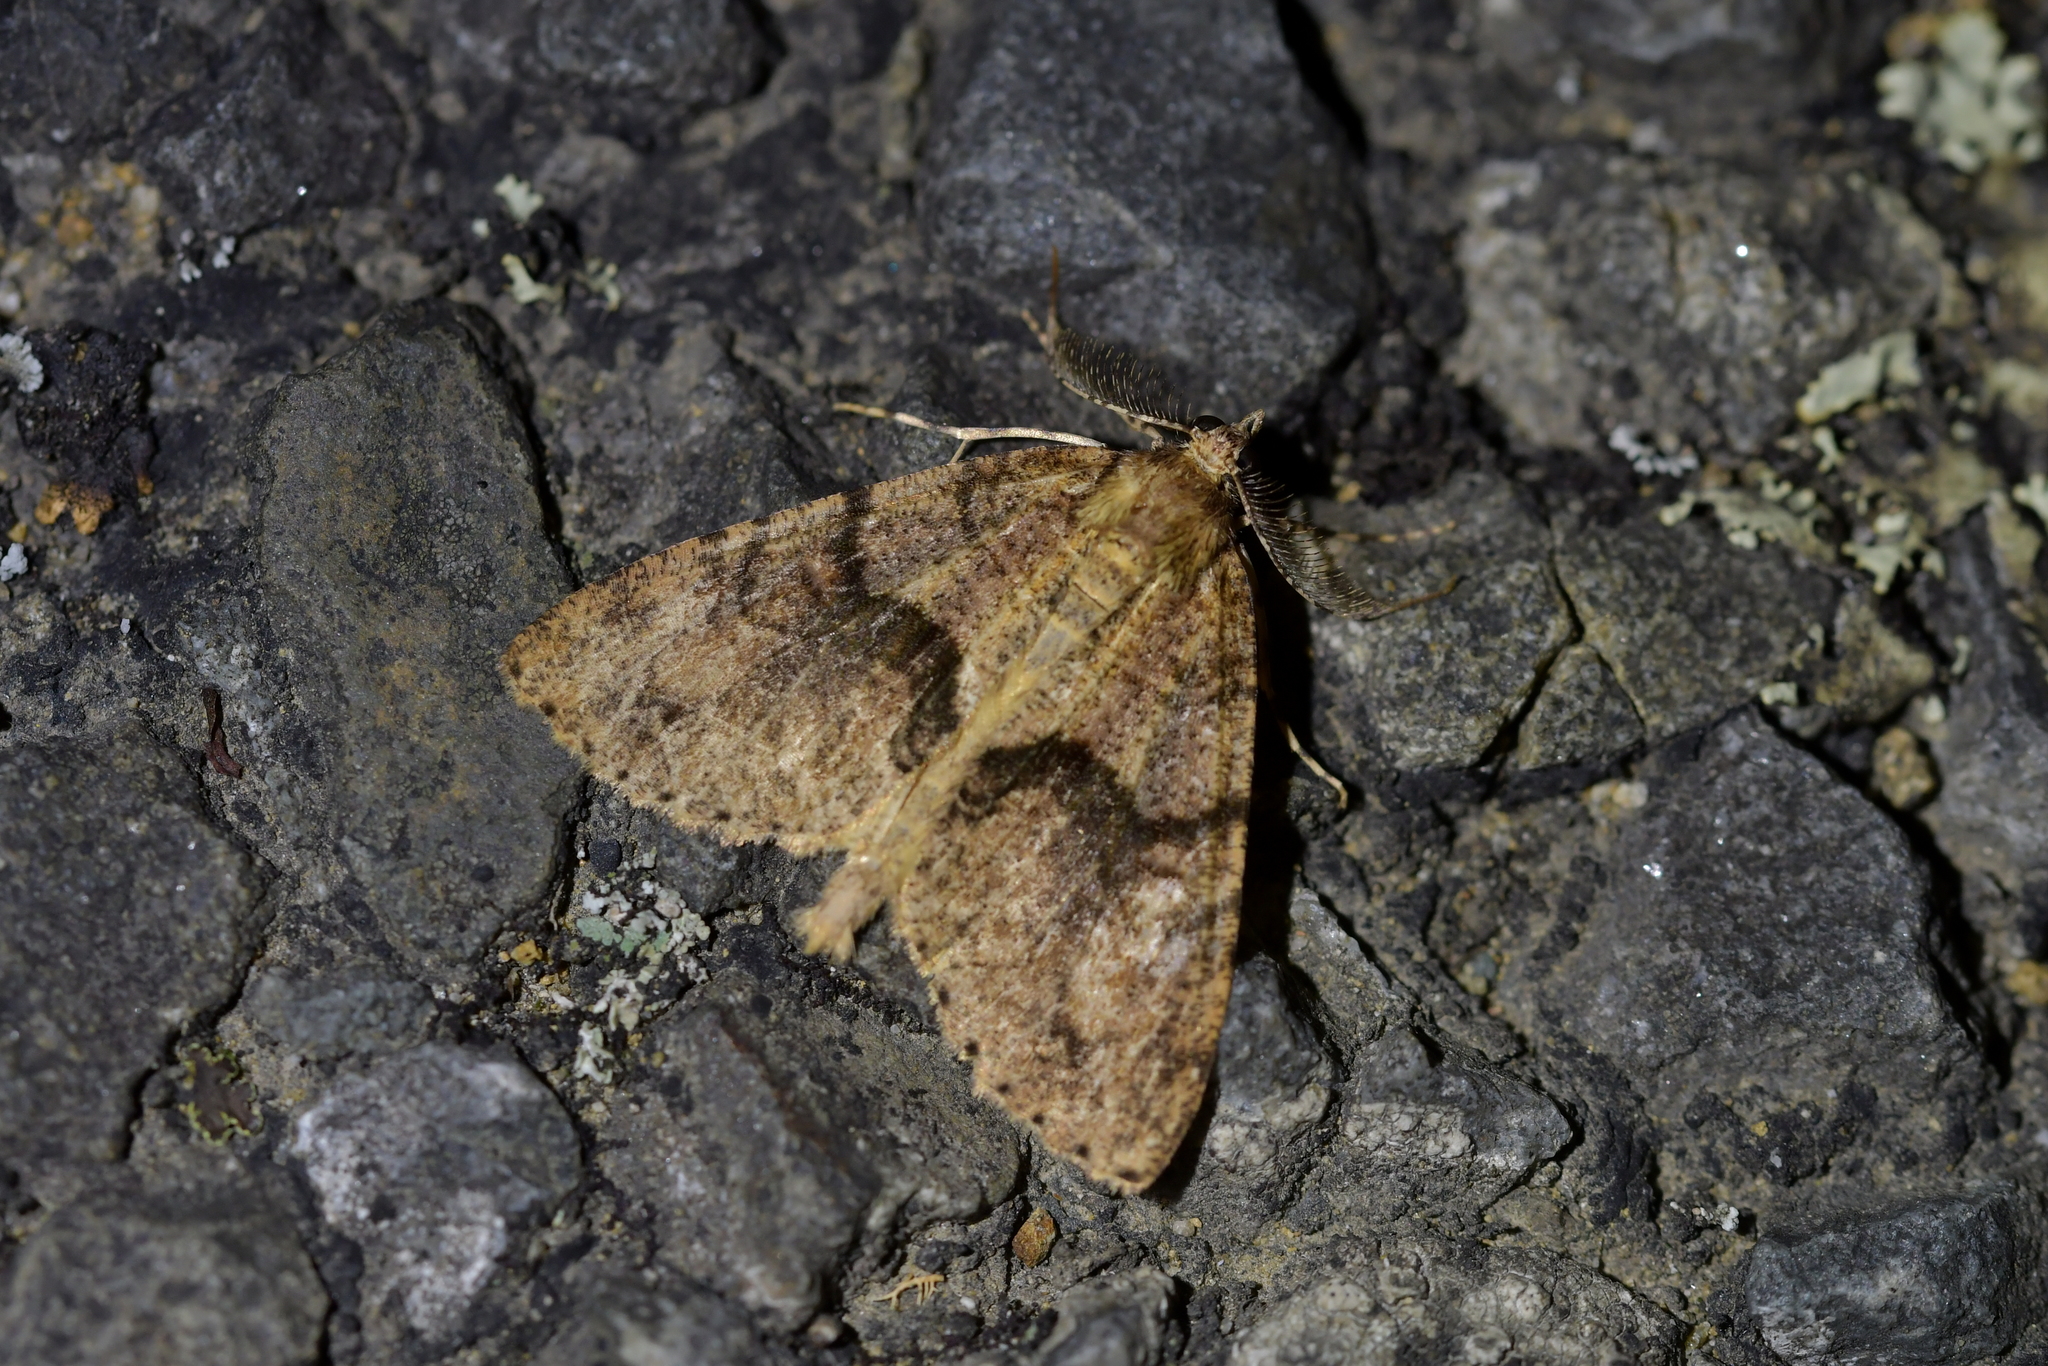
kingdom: Animalia
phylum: Arthropoda
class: Insecta
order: Lepidoptera
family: Geometridae
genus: Pseudocoremia
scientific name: Pseudocoremia suavis
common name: Common forest looper
